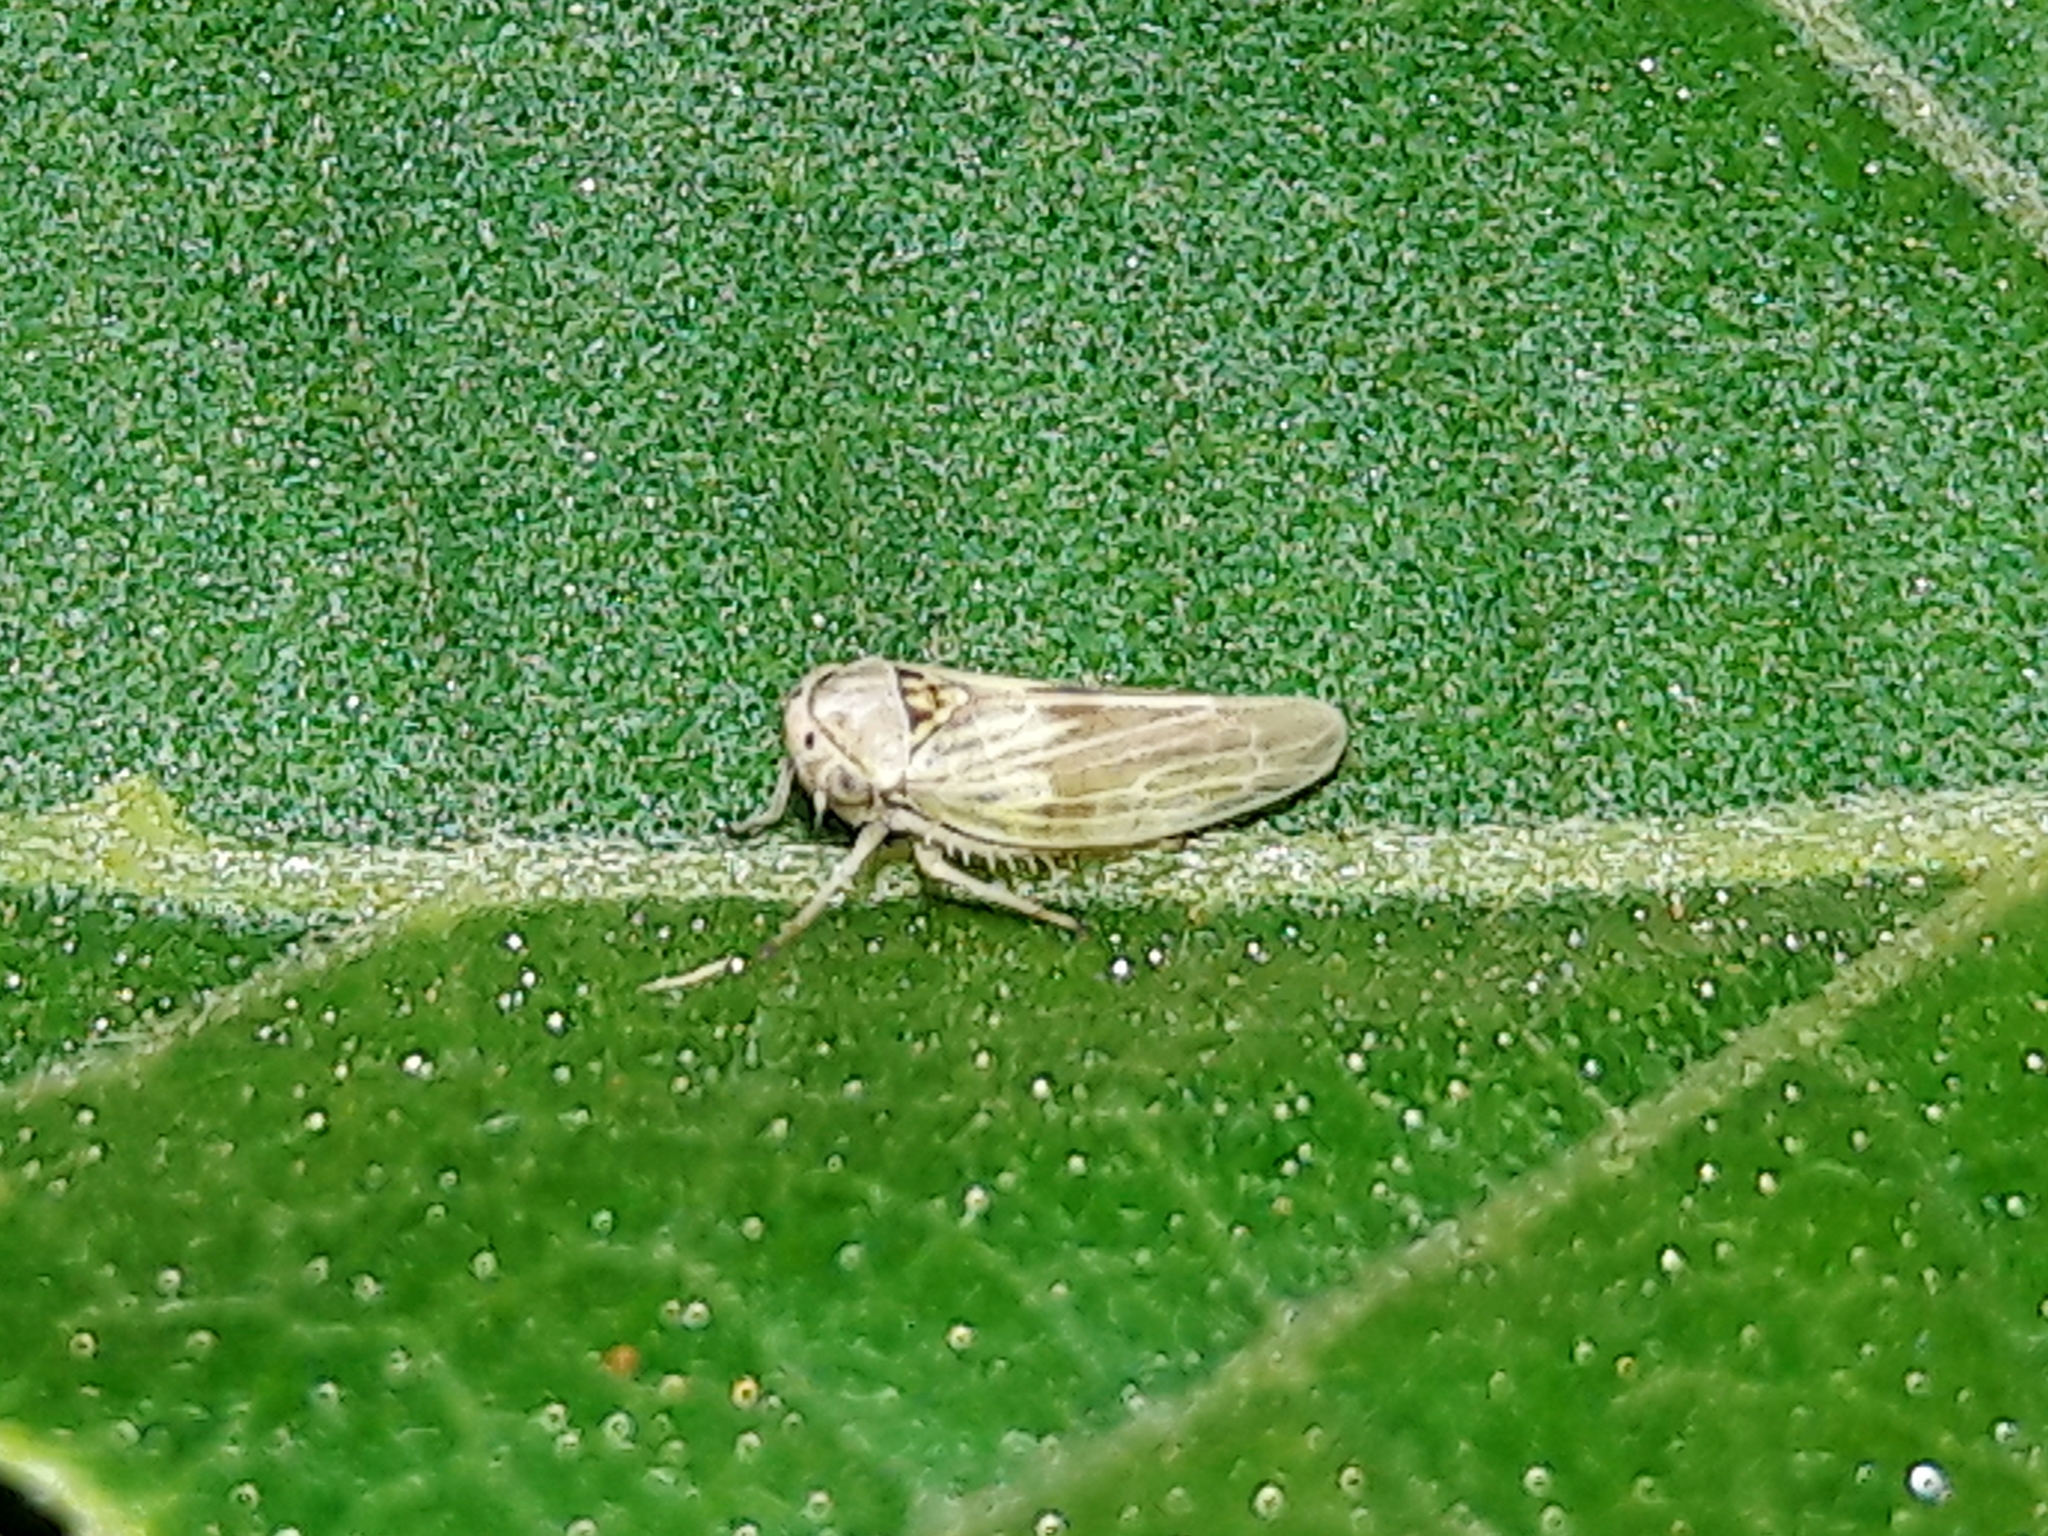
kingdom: Animalia
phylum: Arthropoda
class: Insecta
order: Hemiptera
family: Cicadellidae
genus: Agallia
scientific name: Agallia albidula
